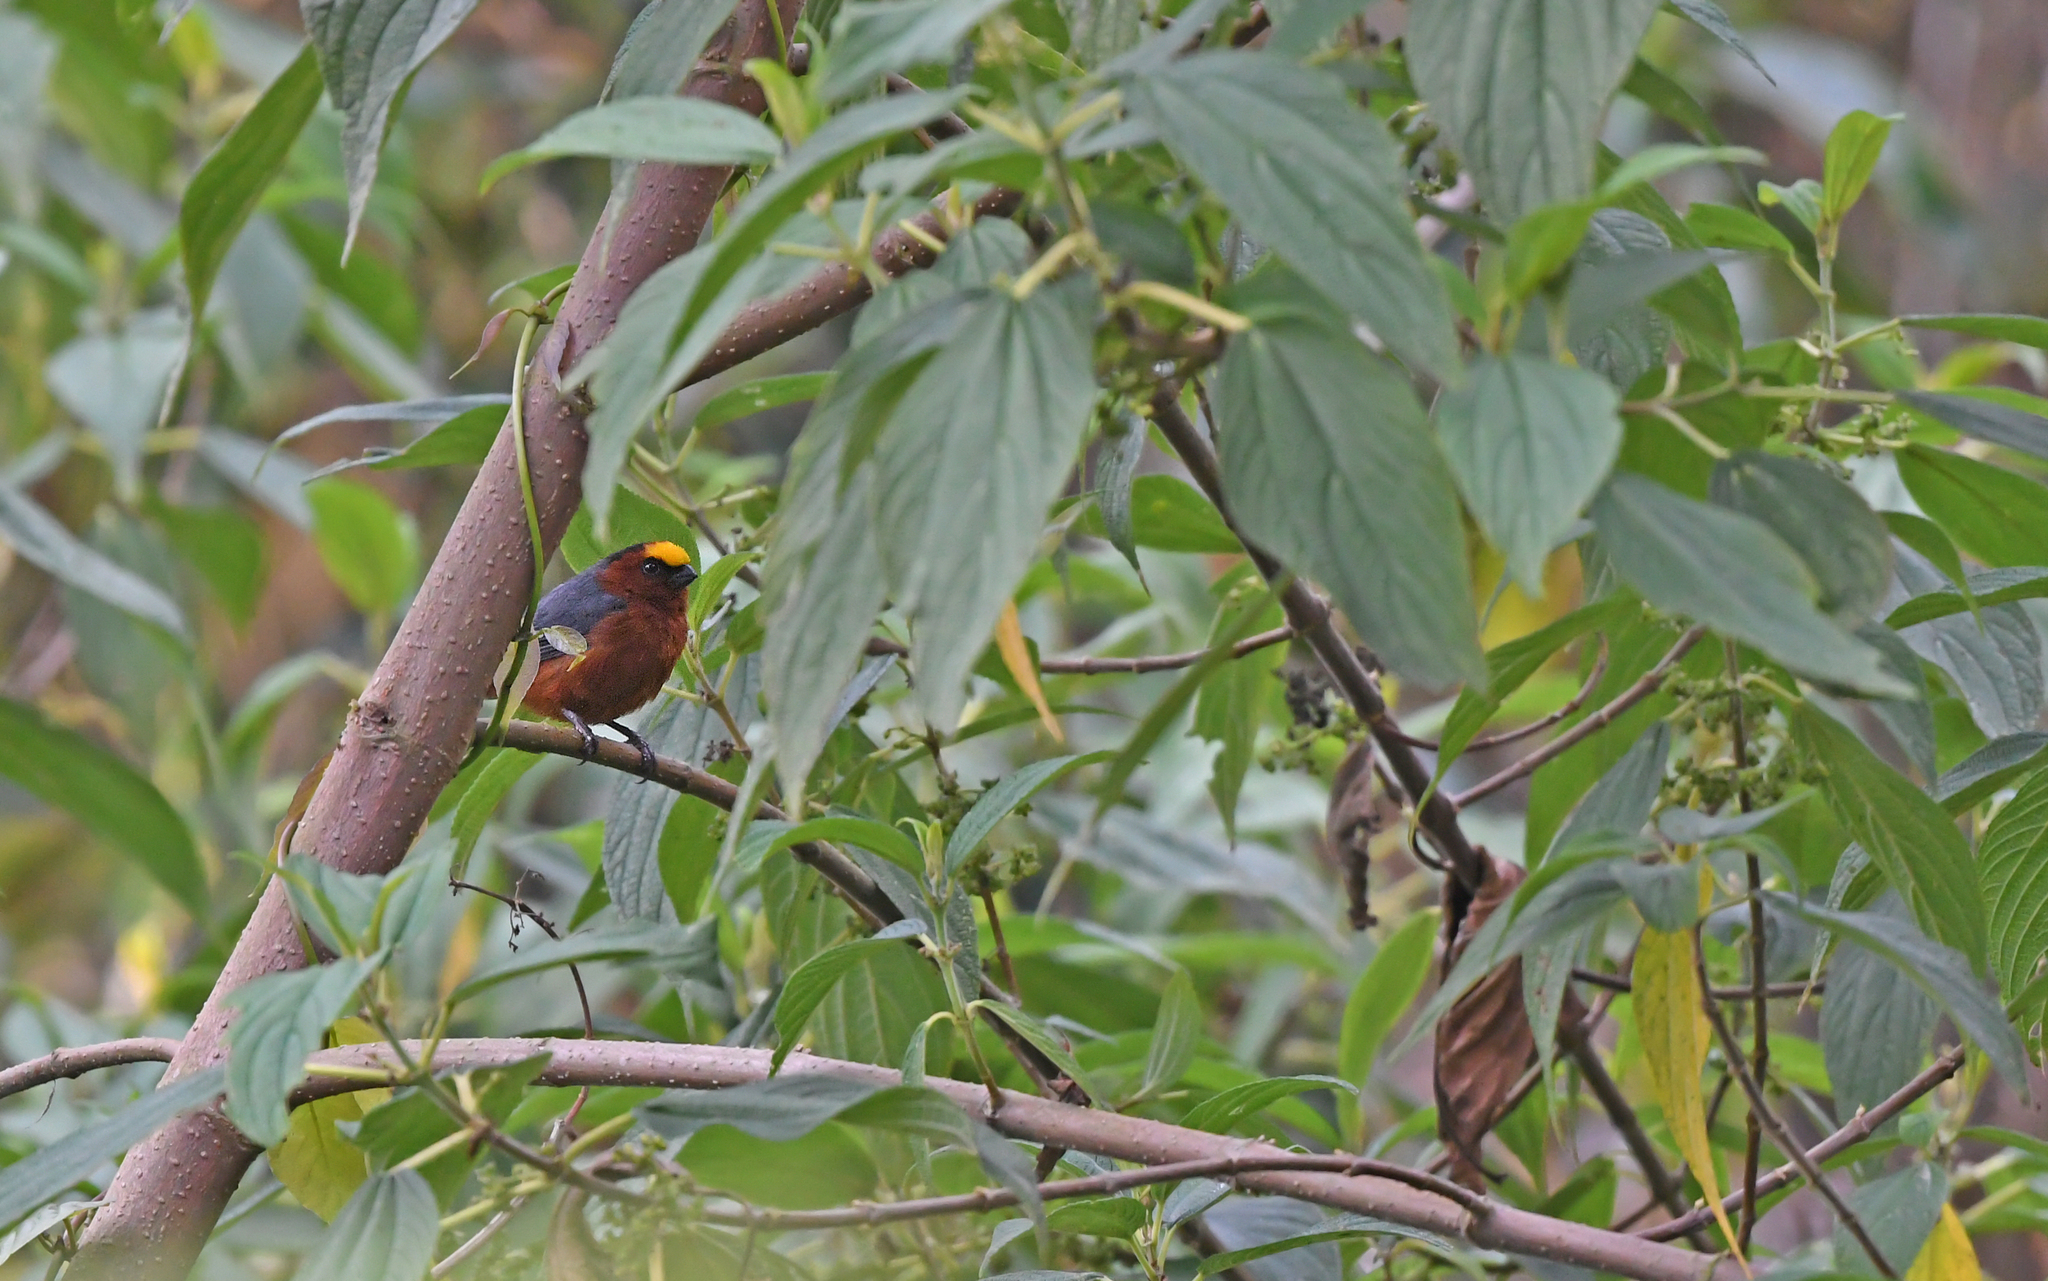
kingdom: Animalia
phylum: Chordata
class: Aves
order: Passeriformes
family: Thraupidae
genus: Catamblyrhynchus
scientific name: Catamblyrhynchus diadema
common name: Plushcap
